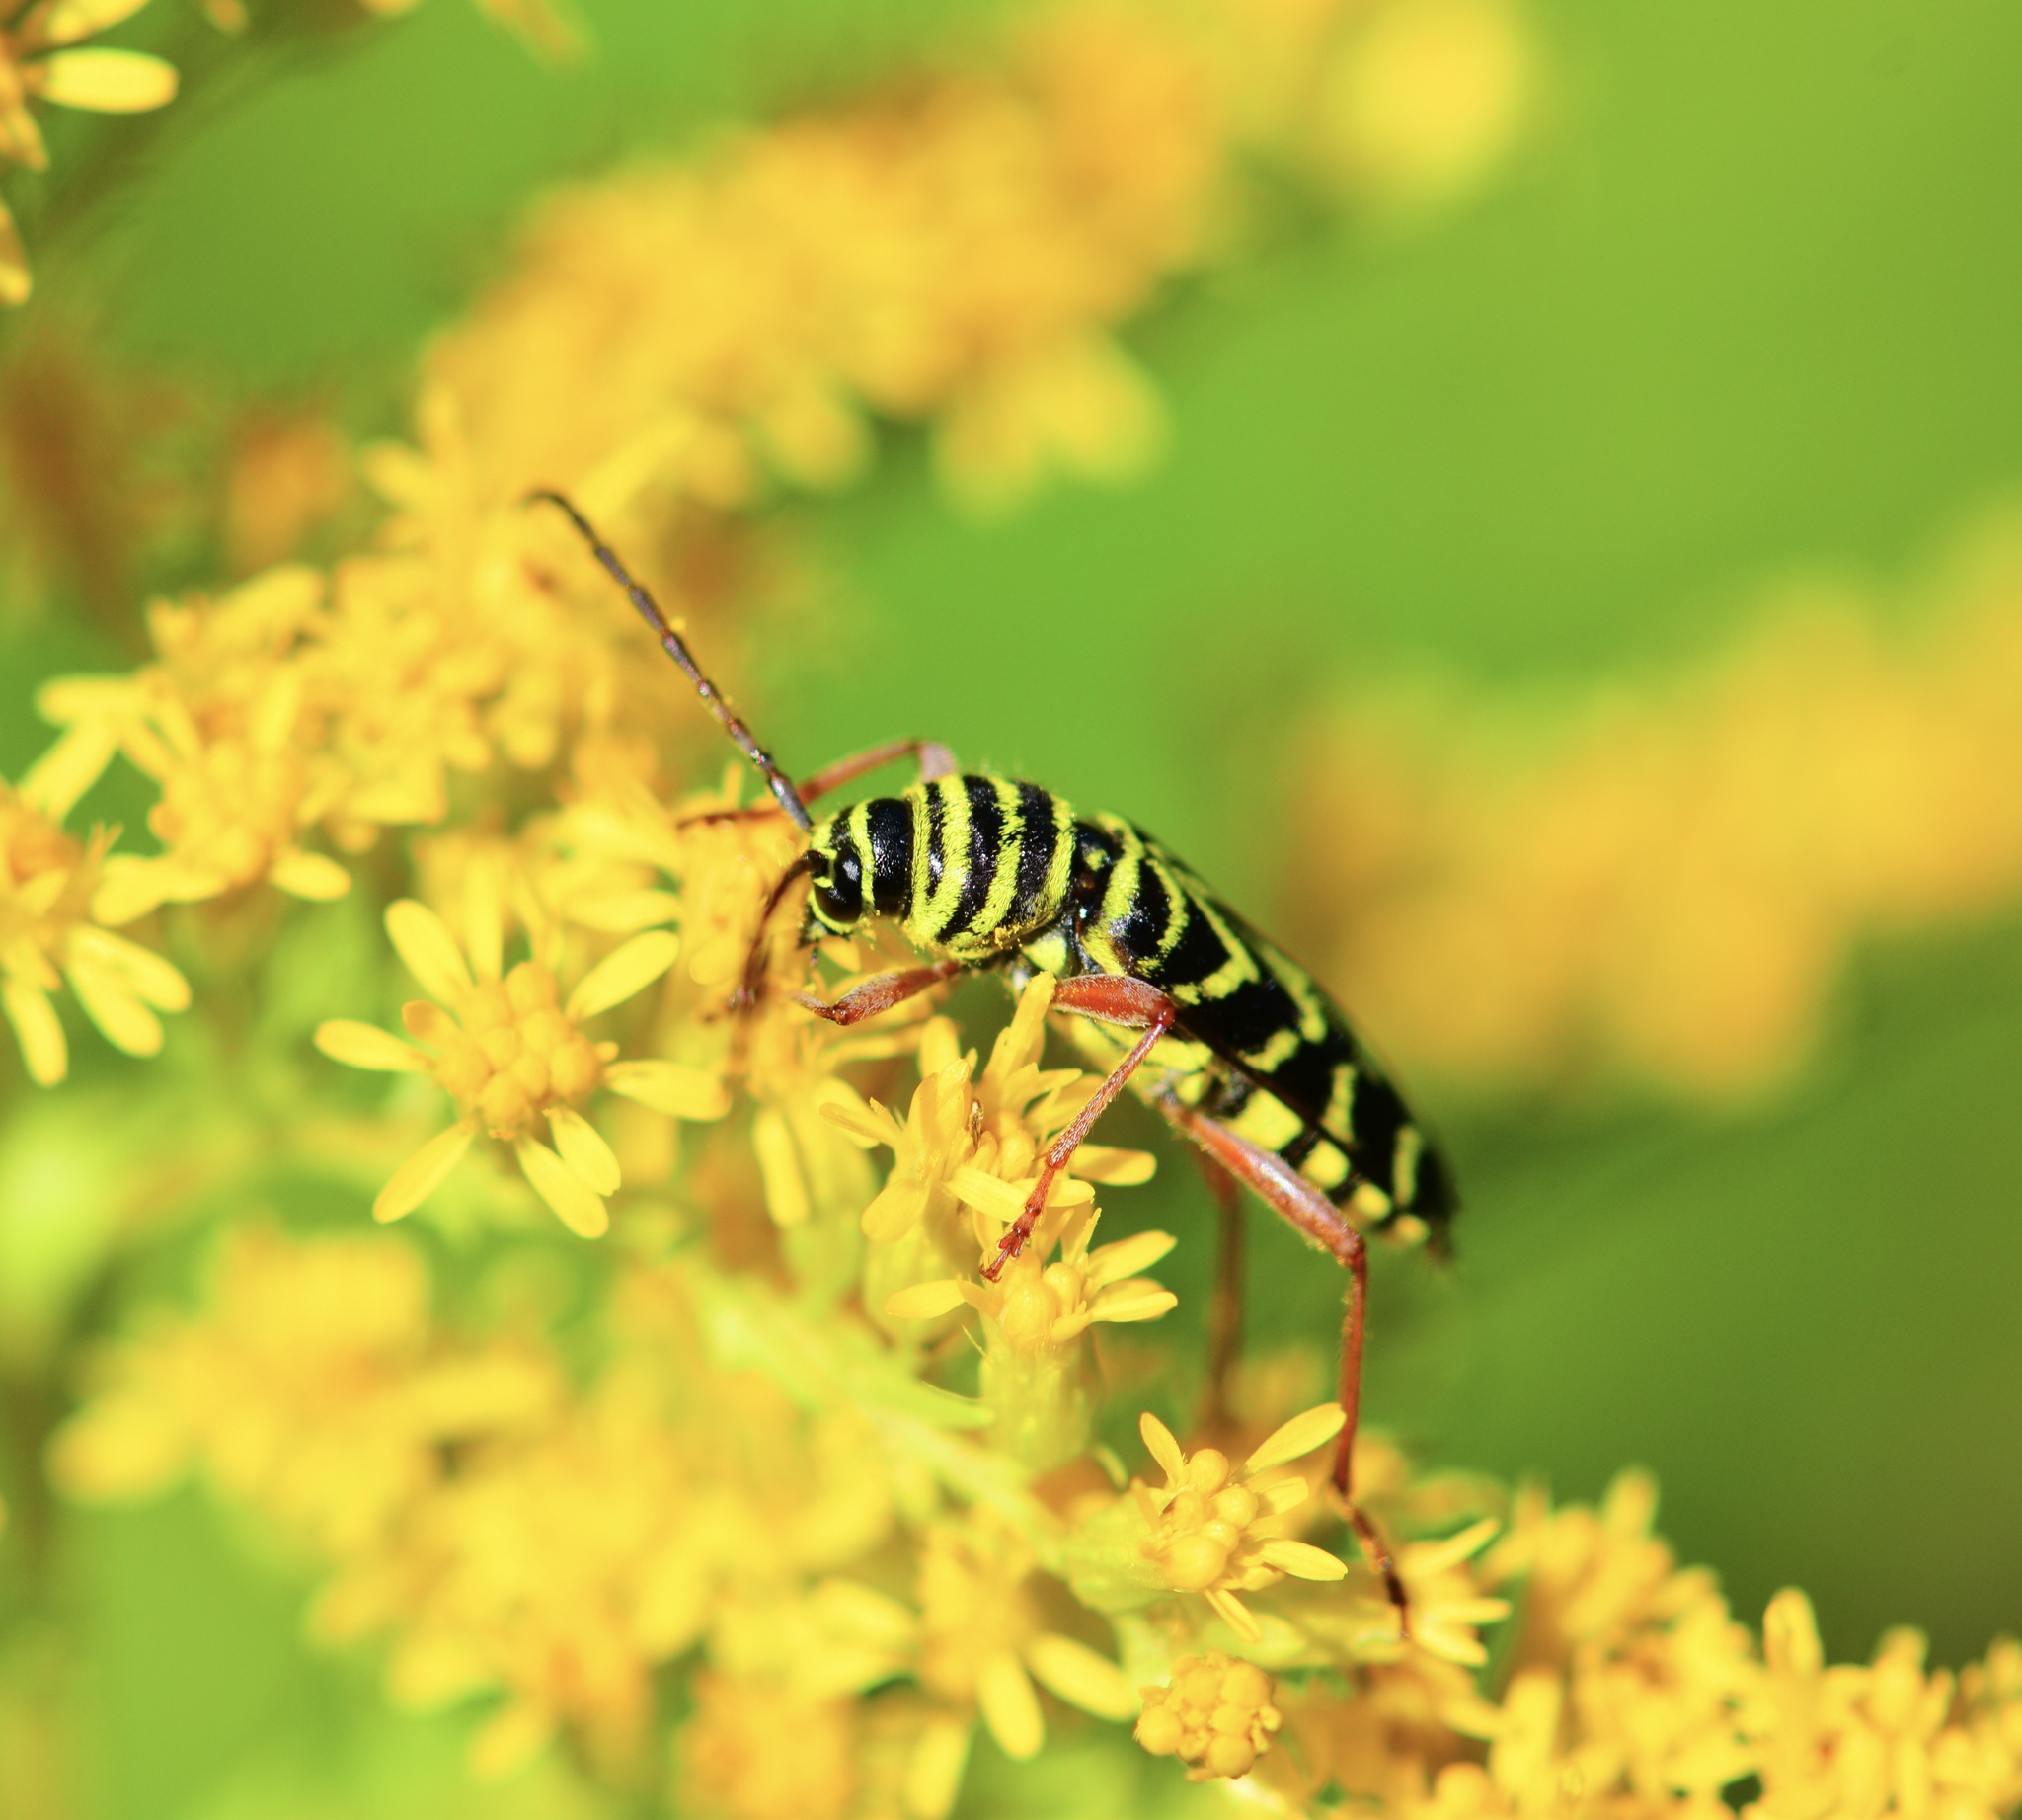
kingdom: Animalia
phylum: Arthropoda
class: Insecta
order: Coleoptera
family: Cerambycidae
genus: Megacyllene
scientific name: Megacyllene robiniae
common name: Locust borer
